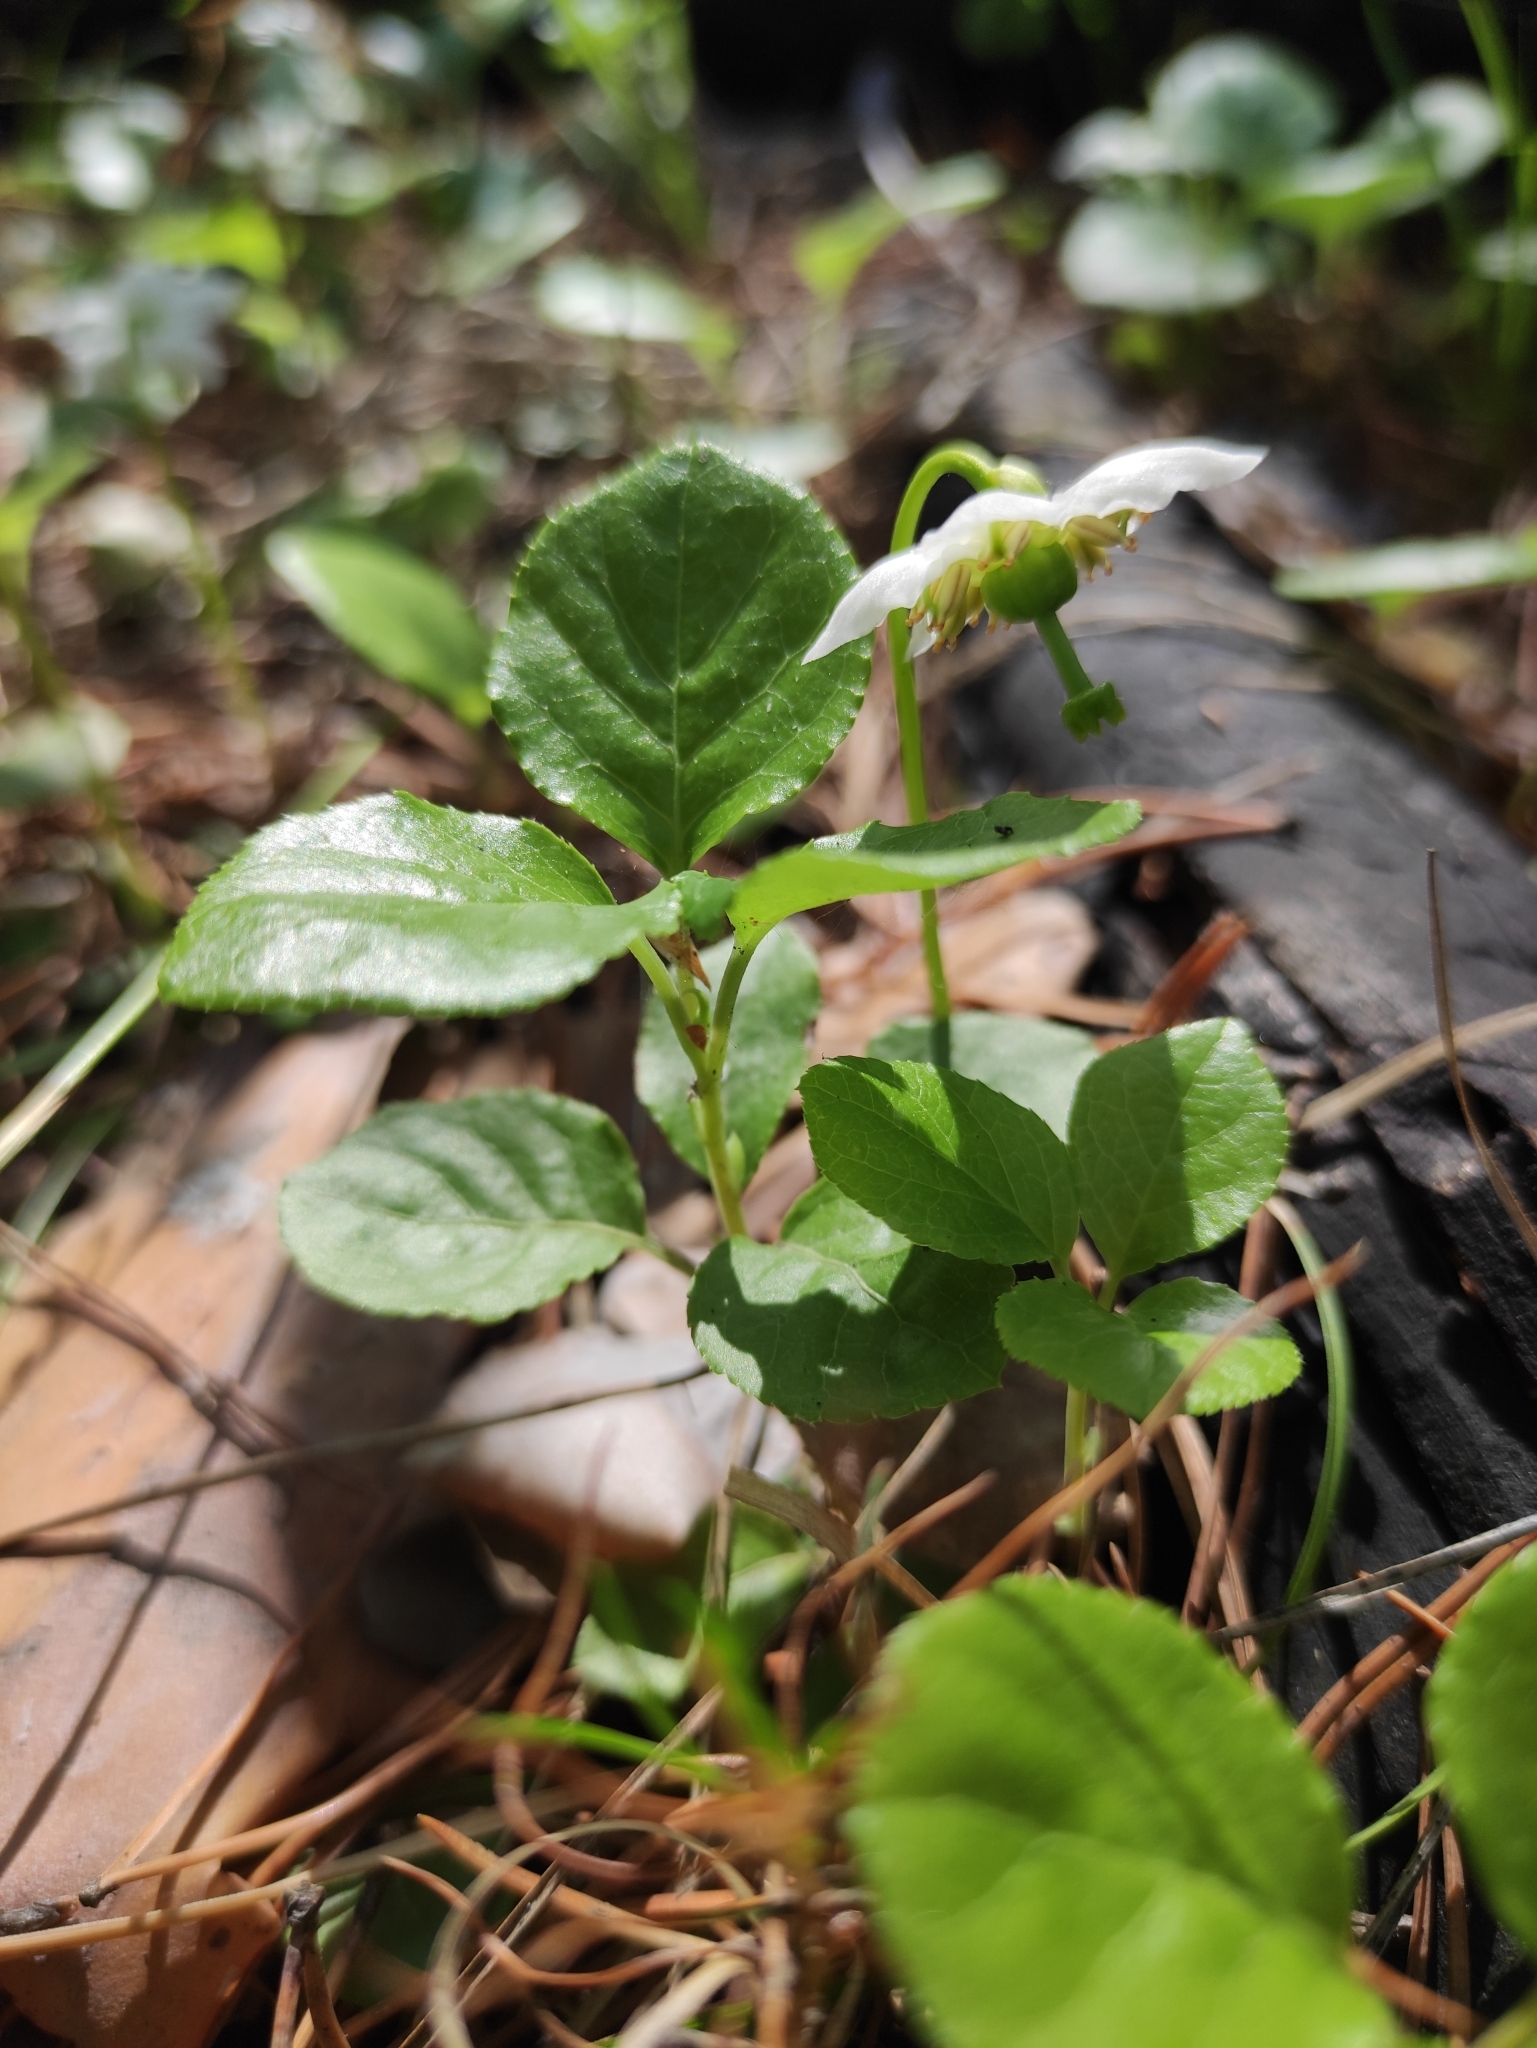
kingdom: Plantae
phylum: Tracheophyta
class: Magnoliopsida
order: Ericales
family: Ericaceae
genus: Moneses
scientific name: Moneses uniflora
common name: One-flowered wintergreen
